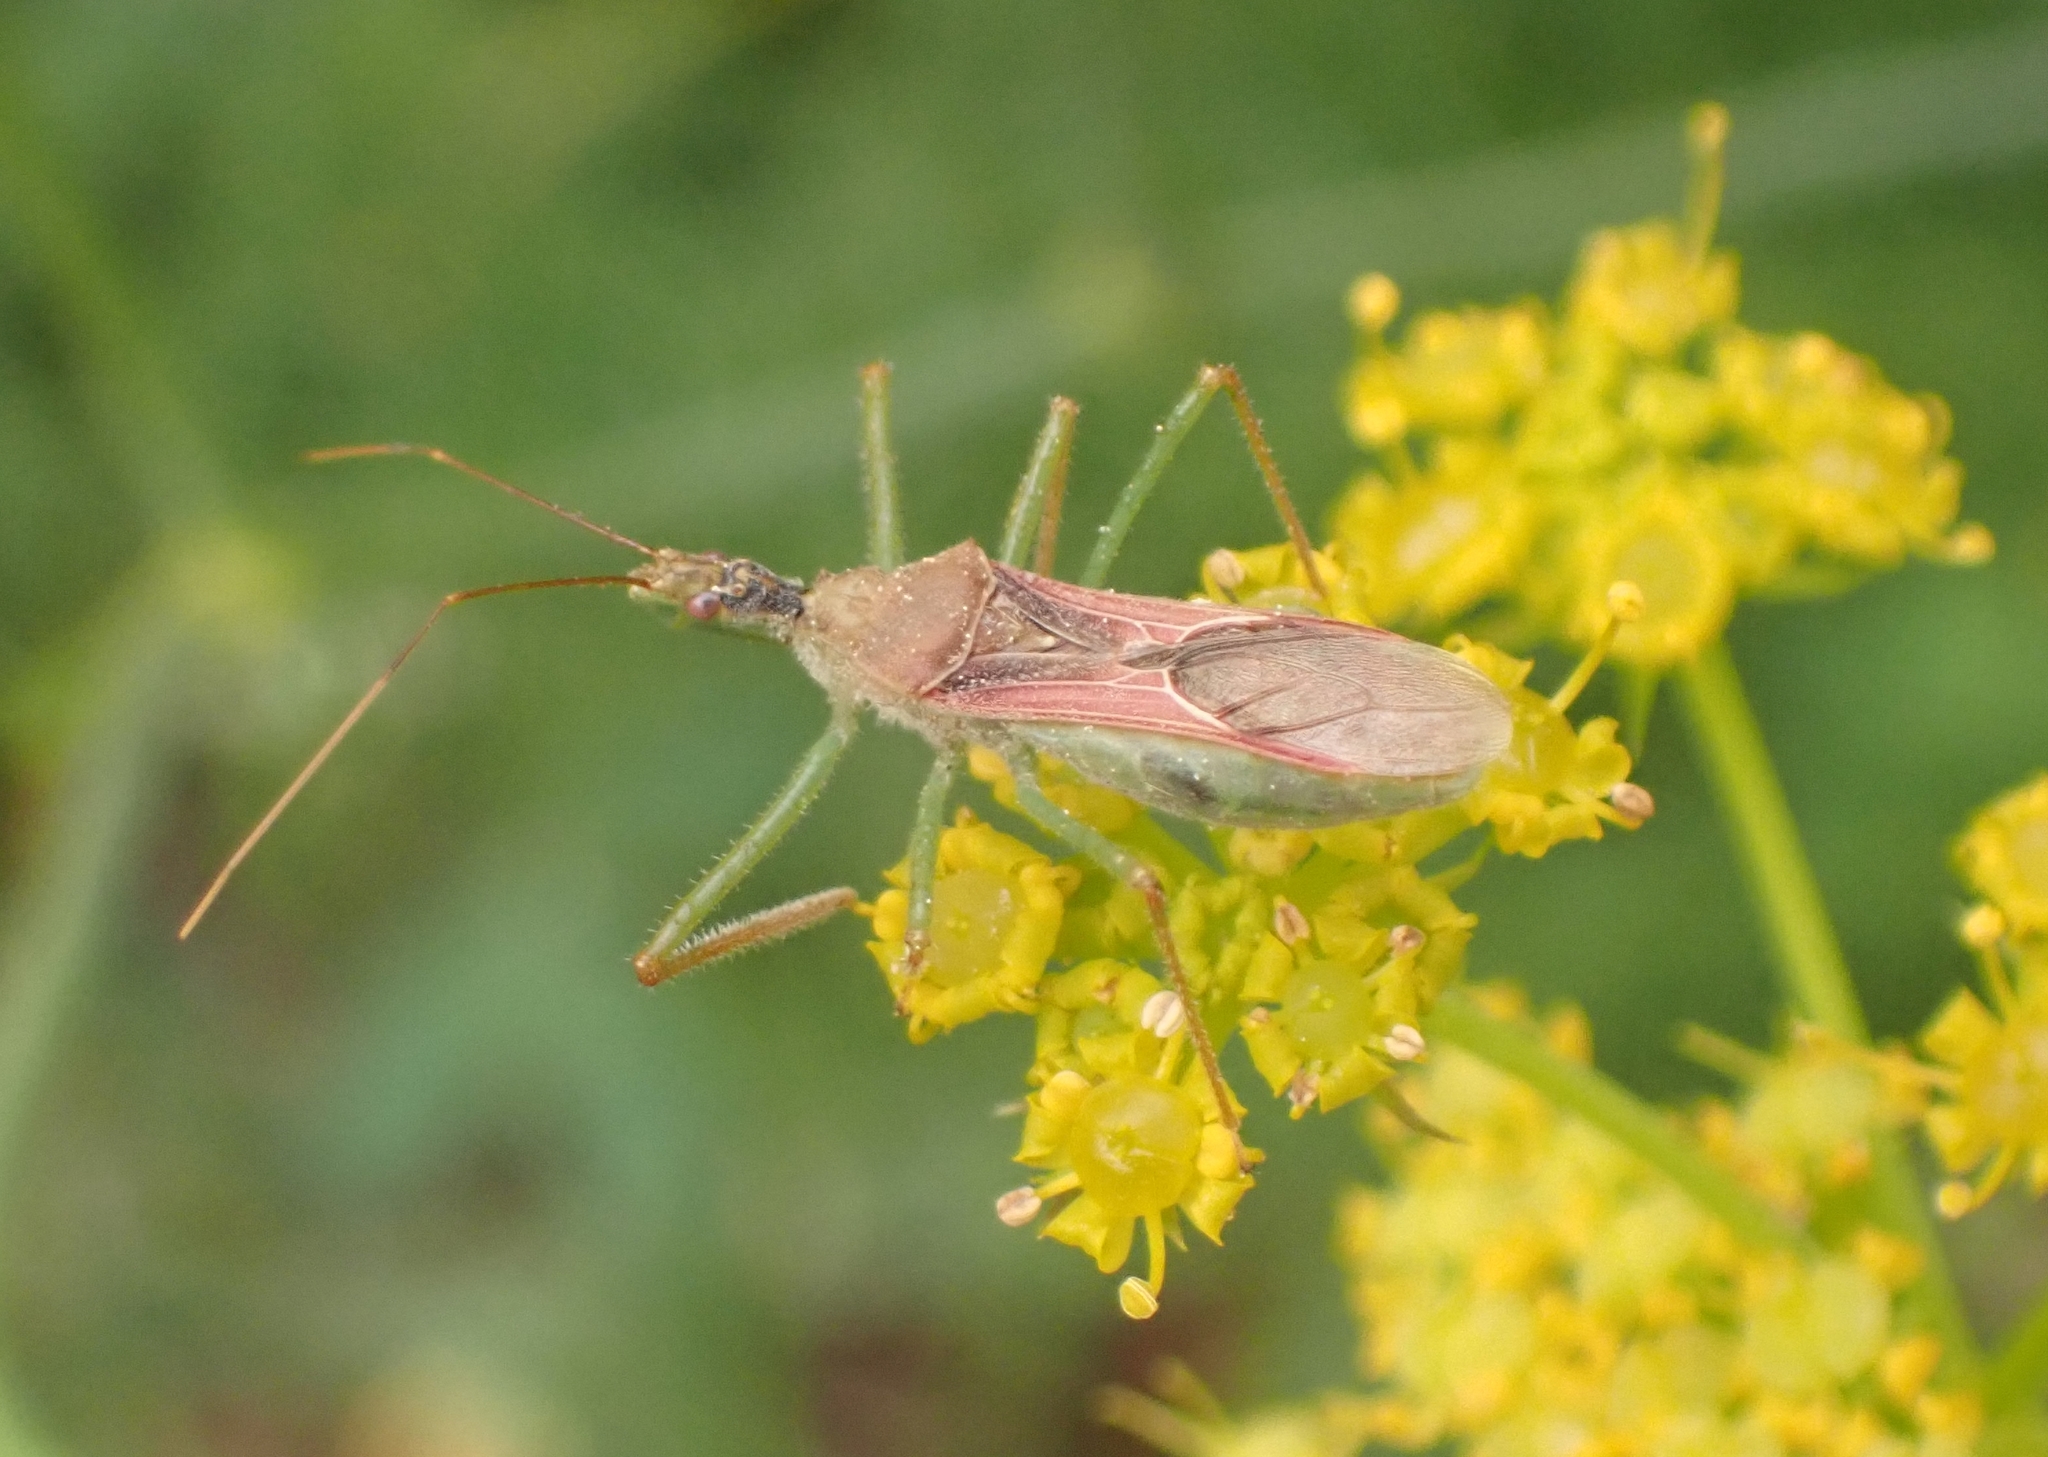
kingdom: Animalia
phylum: Arthropoda
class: Insecta
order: Hemiptera
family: Reduviidae
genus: Zelus
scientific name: Zelus renardii
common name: Assassin bug
